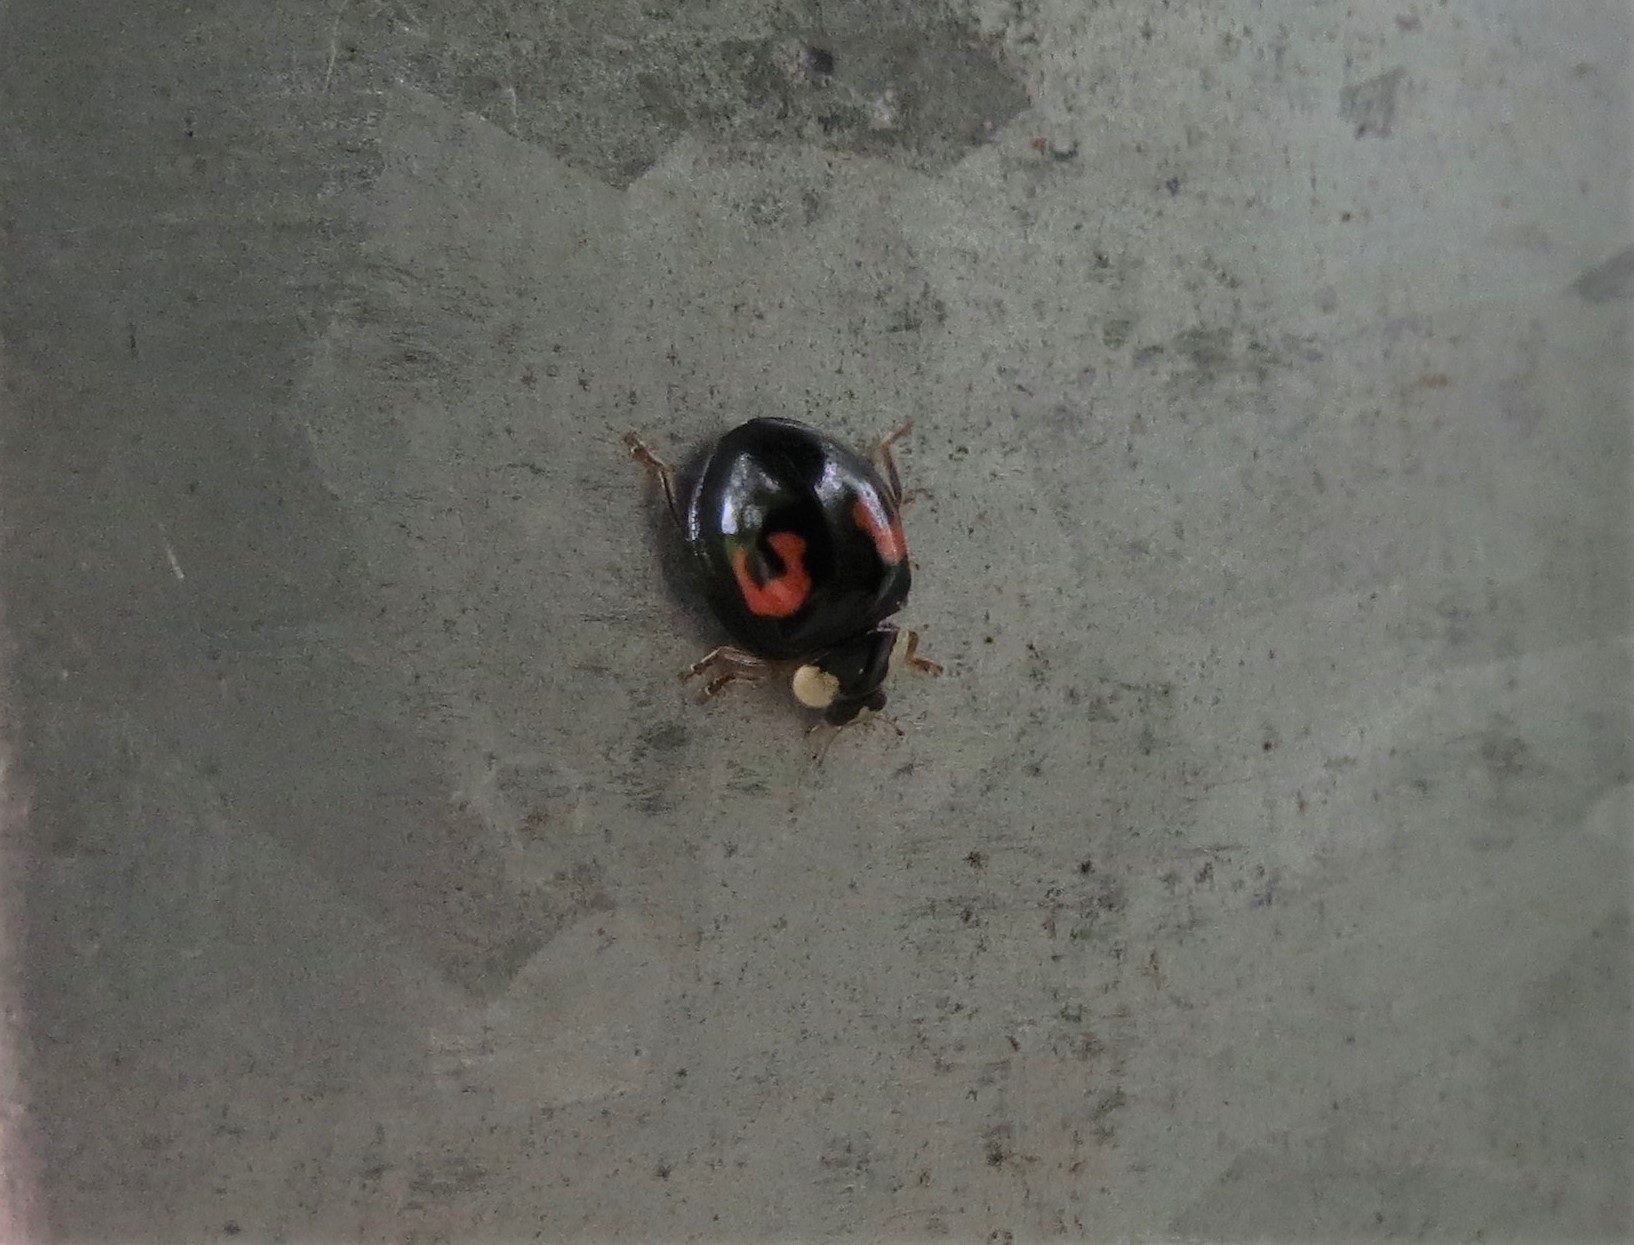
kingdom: Animalia
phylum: Arthropoda
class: Insecta
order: Coleoptera
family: Coccinellidae
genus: Harmonia
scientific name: Harmonia axyridis
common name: Harlequin ladybird
